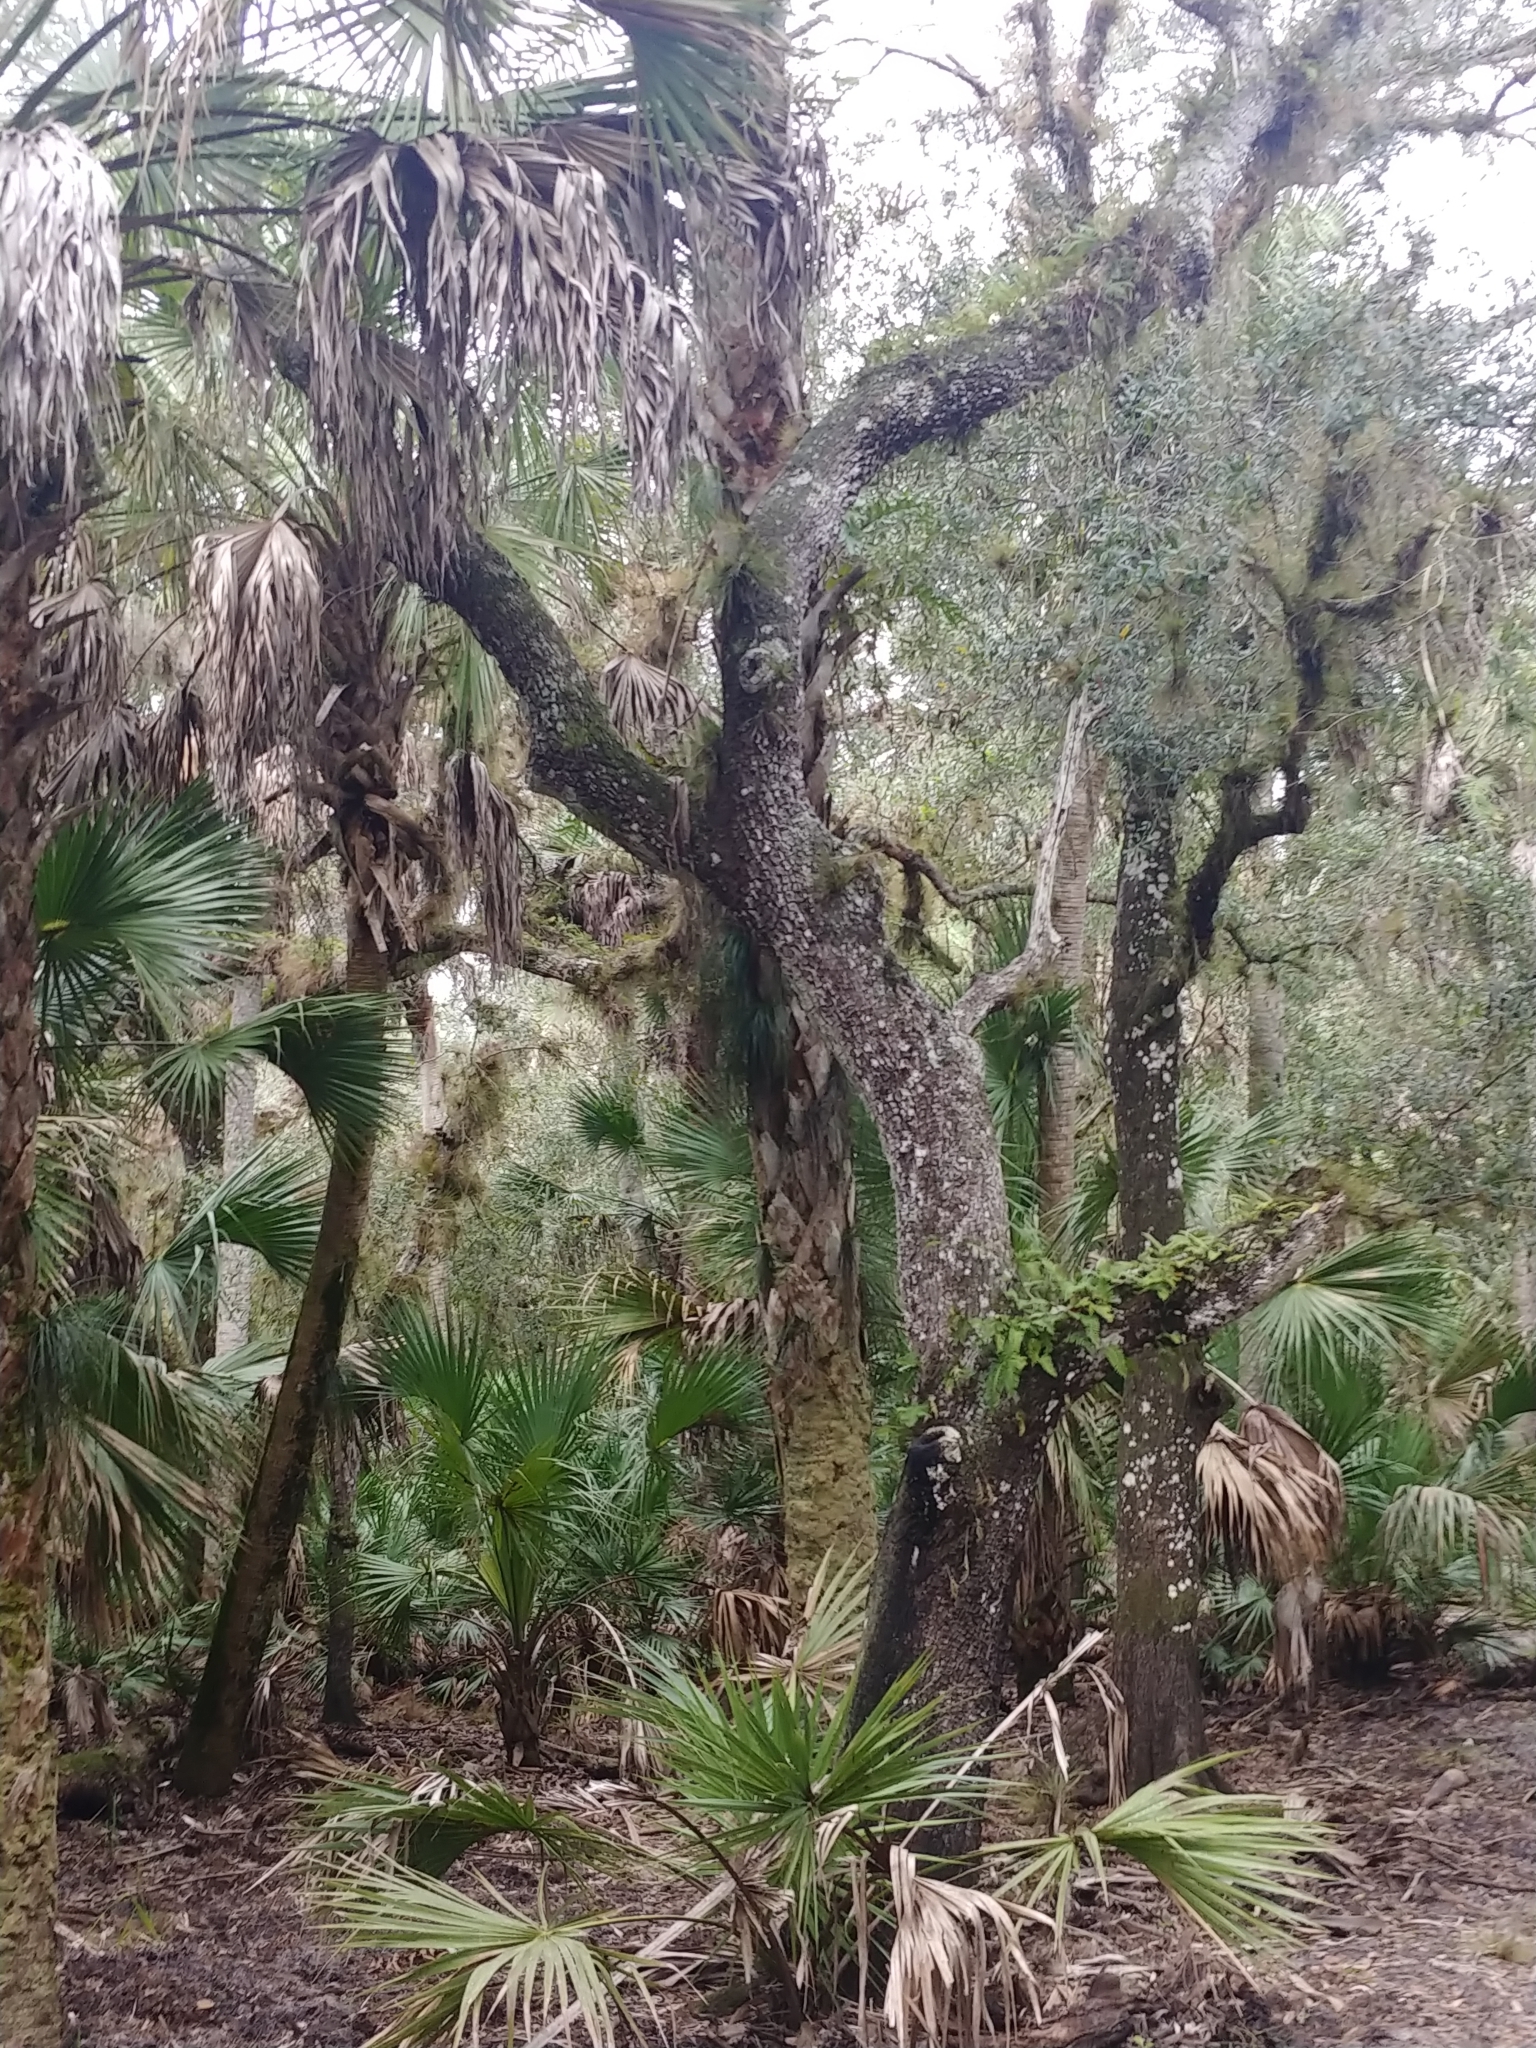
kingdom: Plantae
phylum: Tracheophyta
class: Magnoliopsida
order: Fagales
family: Fagaceae
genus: Quercus
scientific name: Quercus virginiana
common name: Southern live oak
